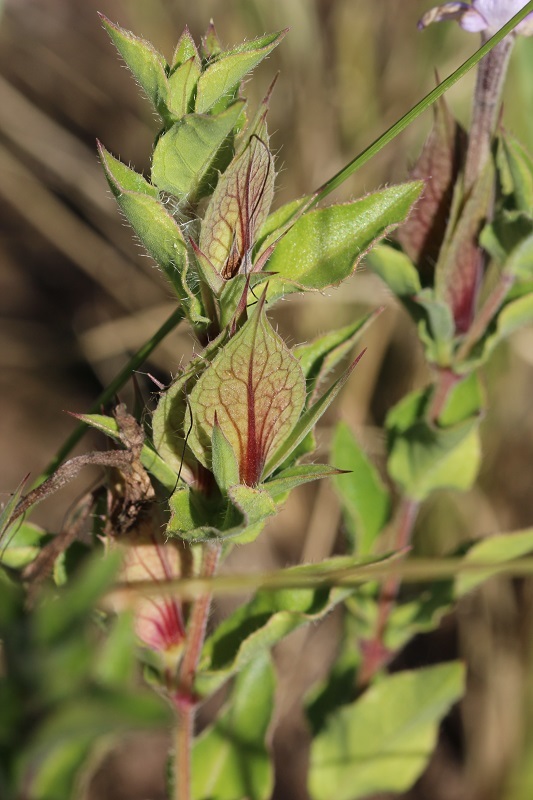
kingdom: Plantae
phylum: Tracheophyta
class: Magnoliopsida
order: Lamiales
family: Acanthaceae
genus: Barleria
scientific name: Barleria pungens
